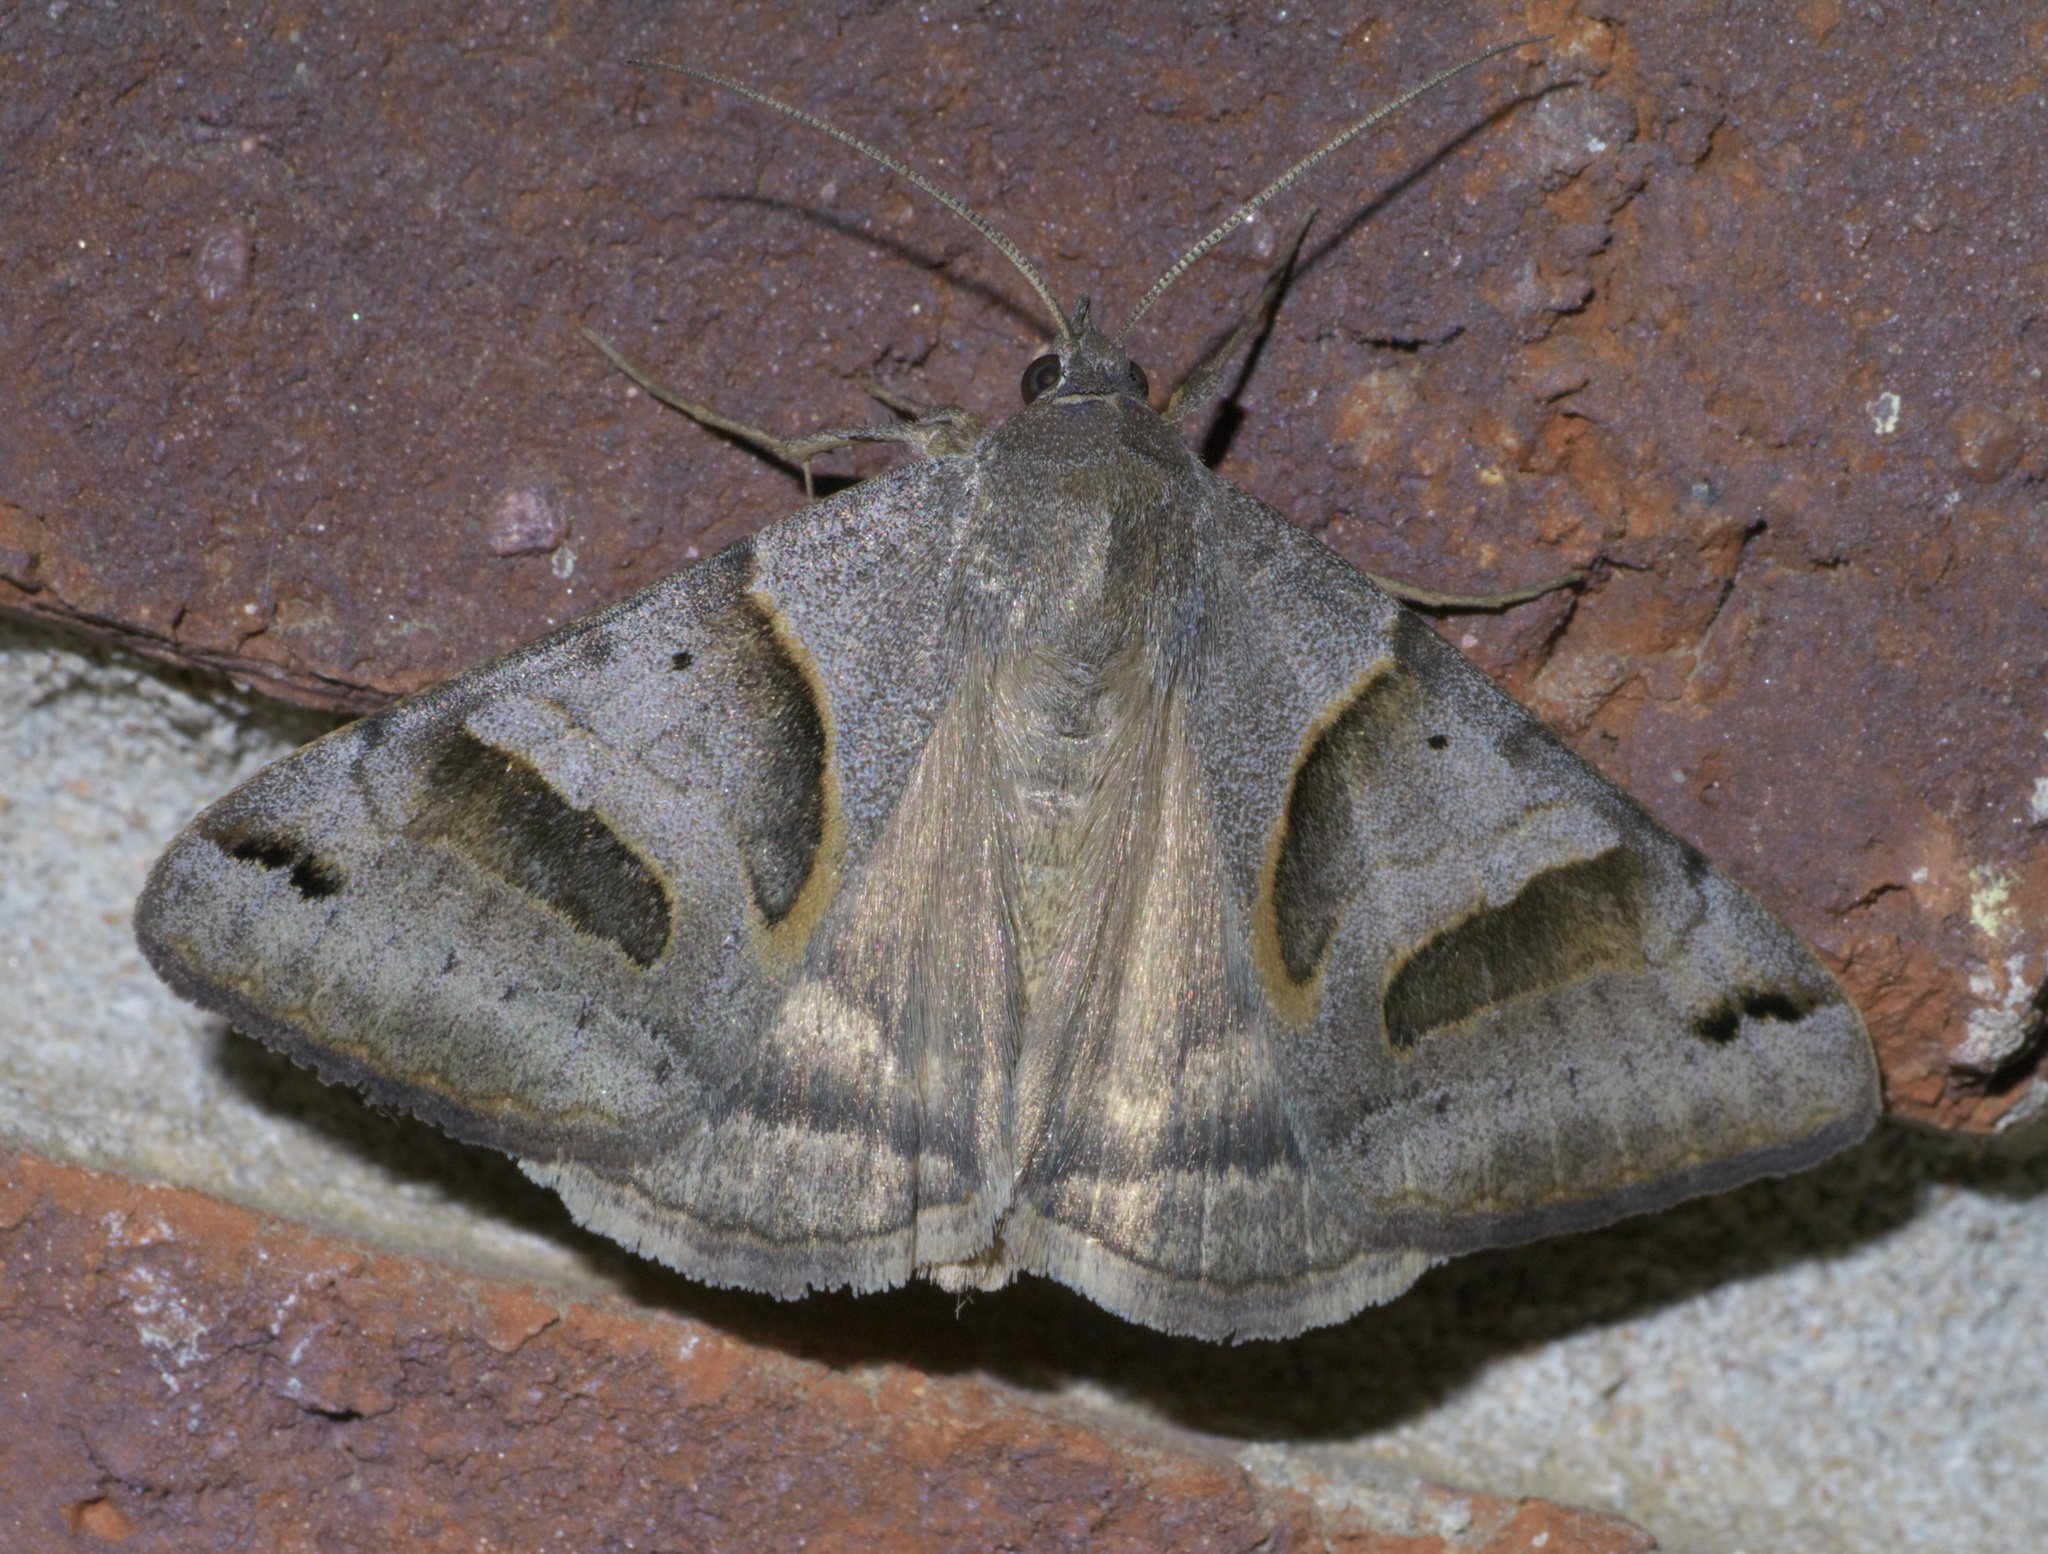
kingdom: Animalia
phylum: Arthropoda
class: Insecta
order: Lepidoptera
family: Erebidae
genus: Caenurgina
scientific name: Caenurgina erechtea
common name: Forage looper moth
